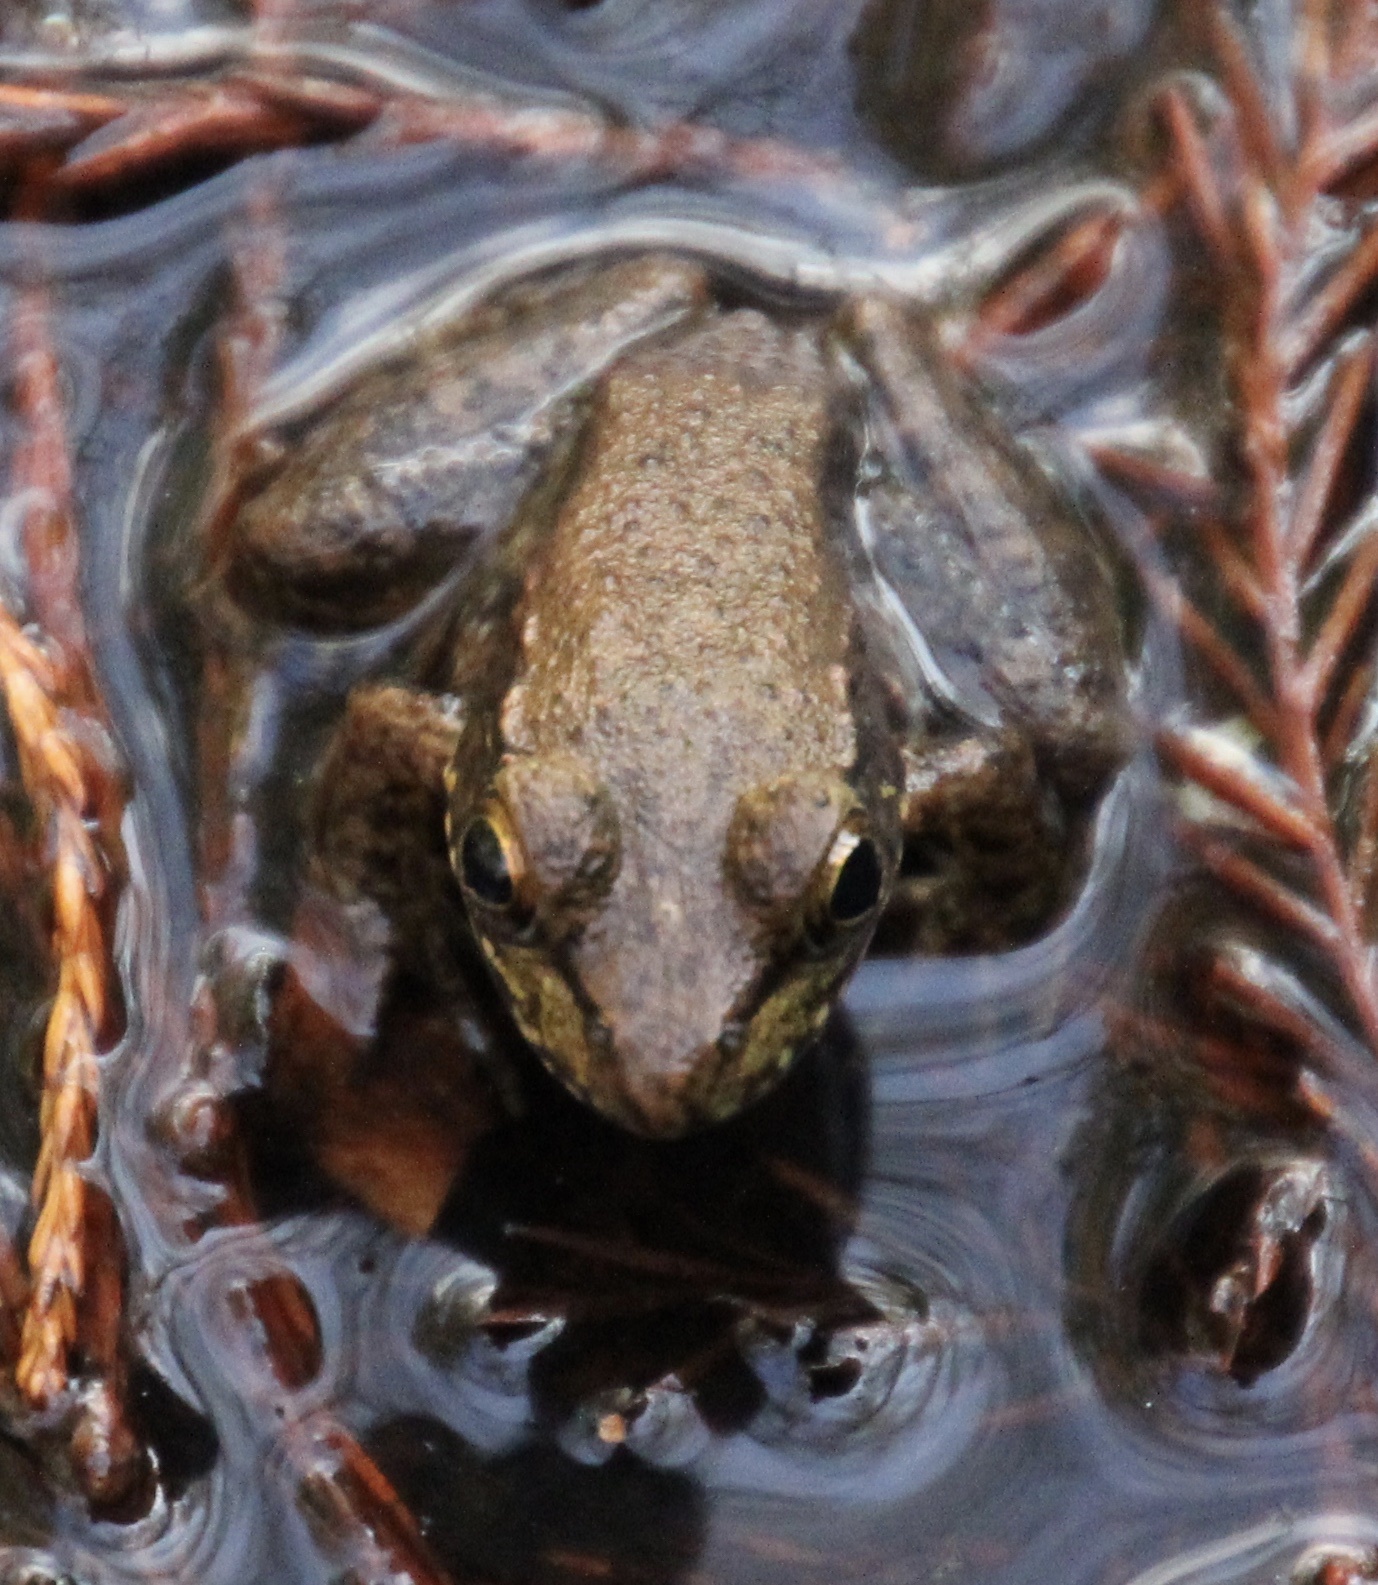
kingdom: Animalia
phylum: Chordata
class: Amphibia
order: Anura
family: Ranidae
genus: Lithobates
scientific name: Lithobates clamitans
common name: Green frog
